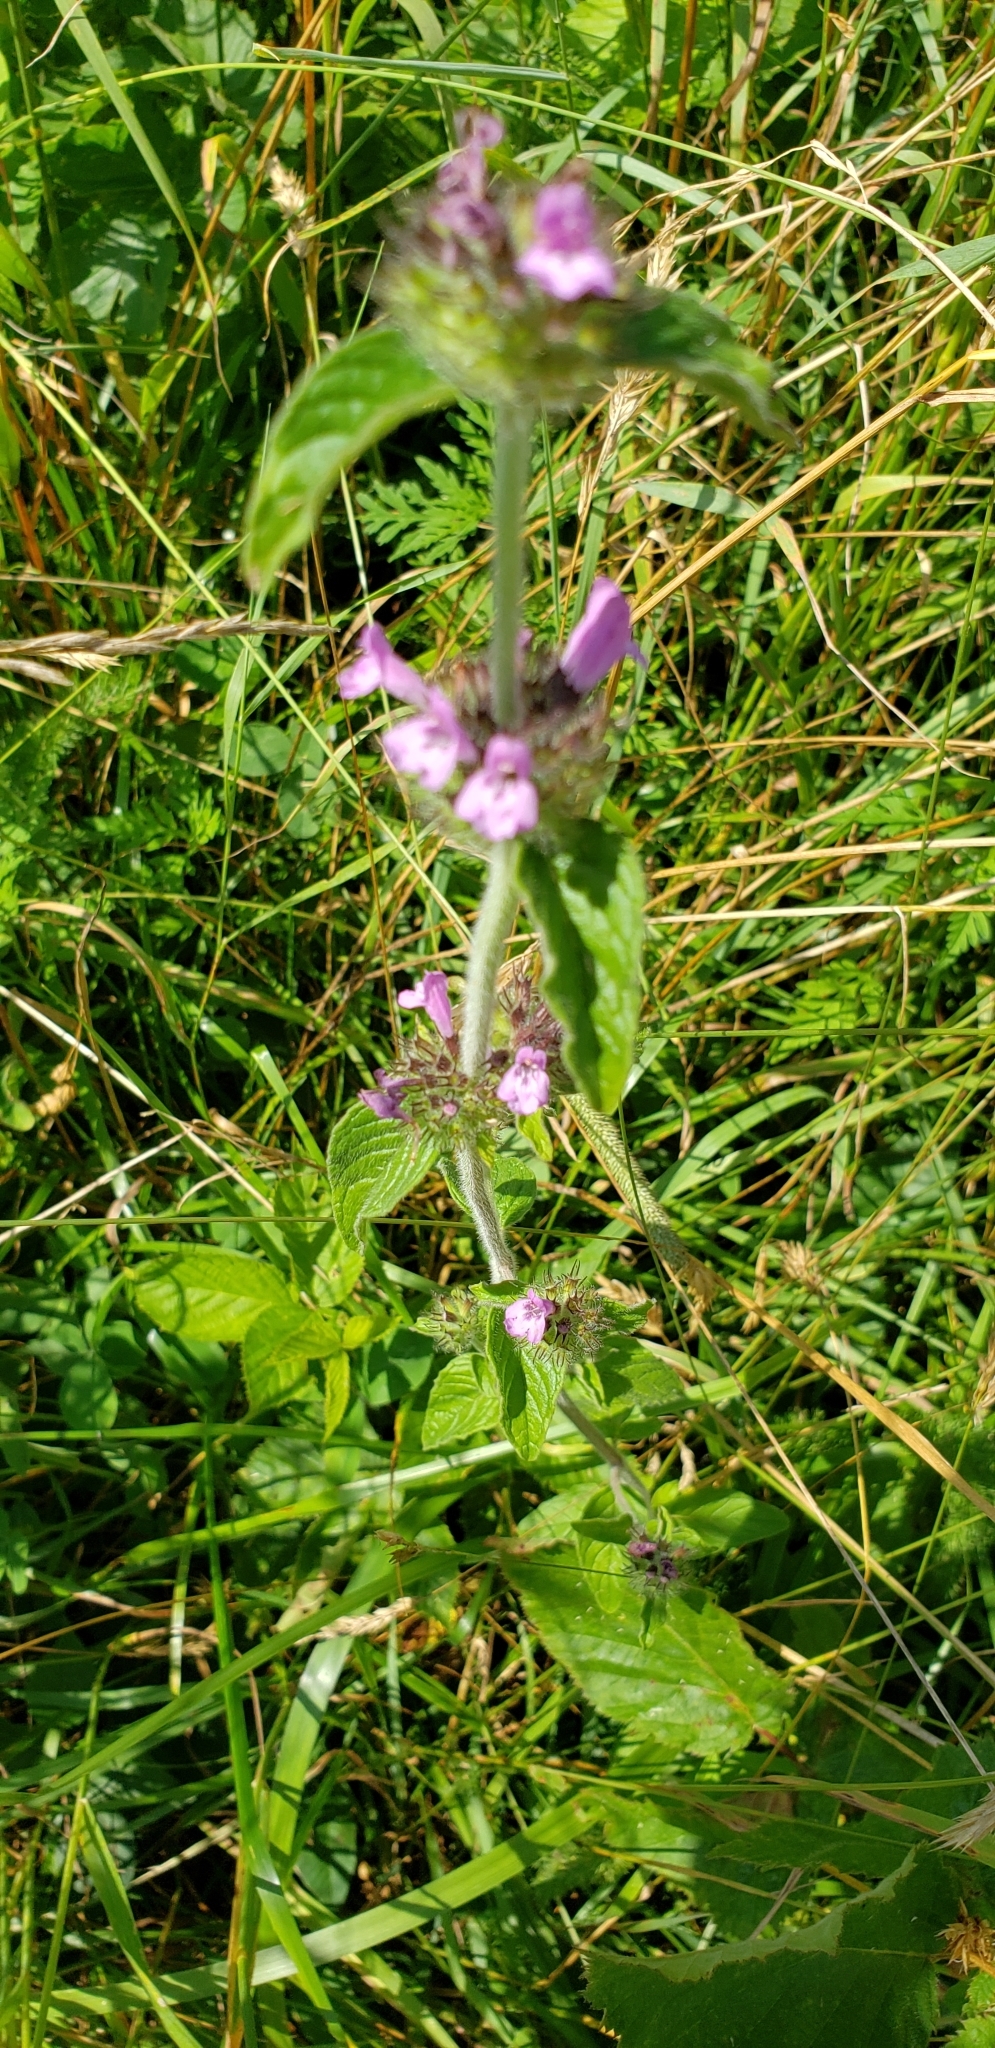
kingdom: Plantae
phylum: Tracheophyta
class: Magnoliopsida
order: Lamiales
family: Lamiaceae
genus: Clinopodium
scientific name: Clinopodium vulgare
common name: Wild basil
